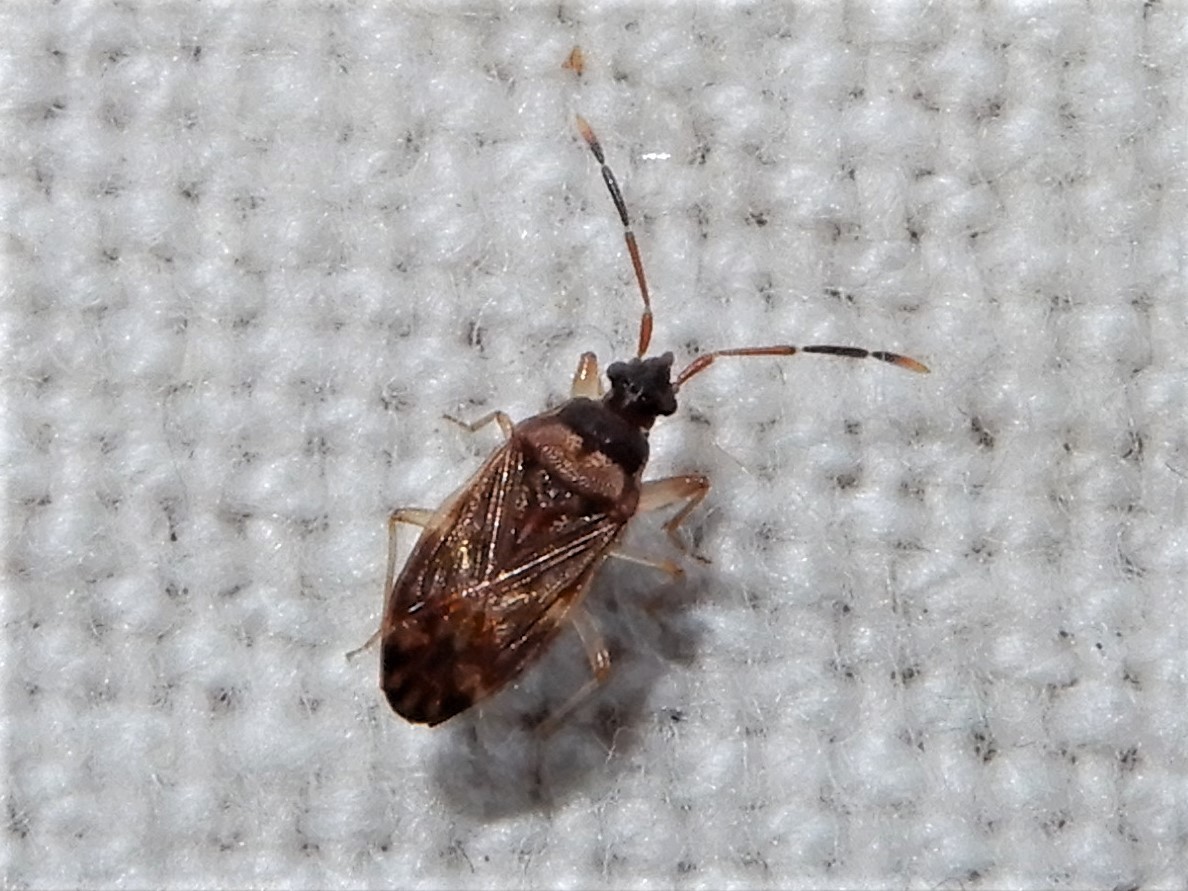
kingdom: Animalia
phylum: Arthropoda
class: Insecta
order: Hemiptera
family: Rhyparochromidae
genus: Grossander
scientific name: Grossander major
